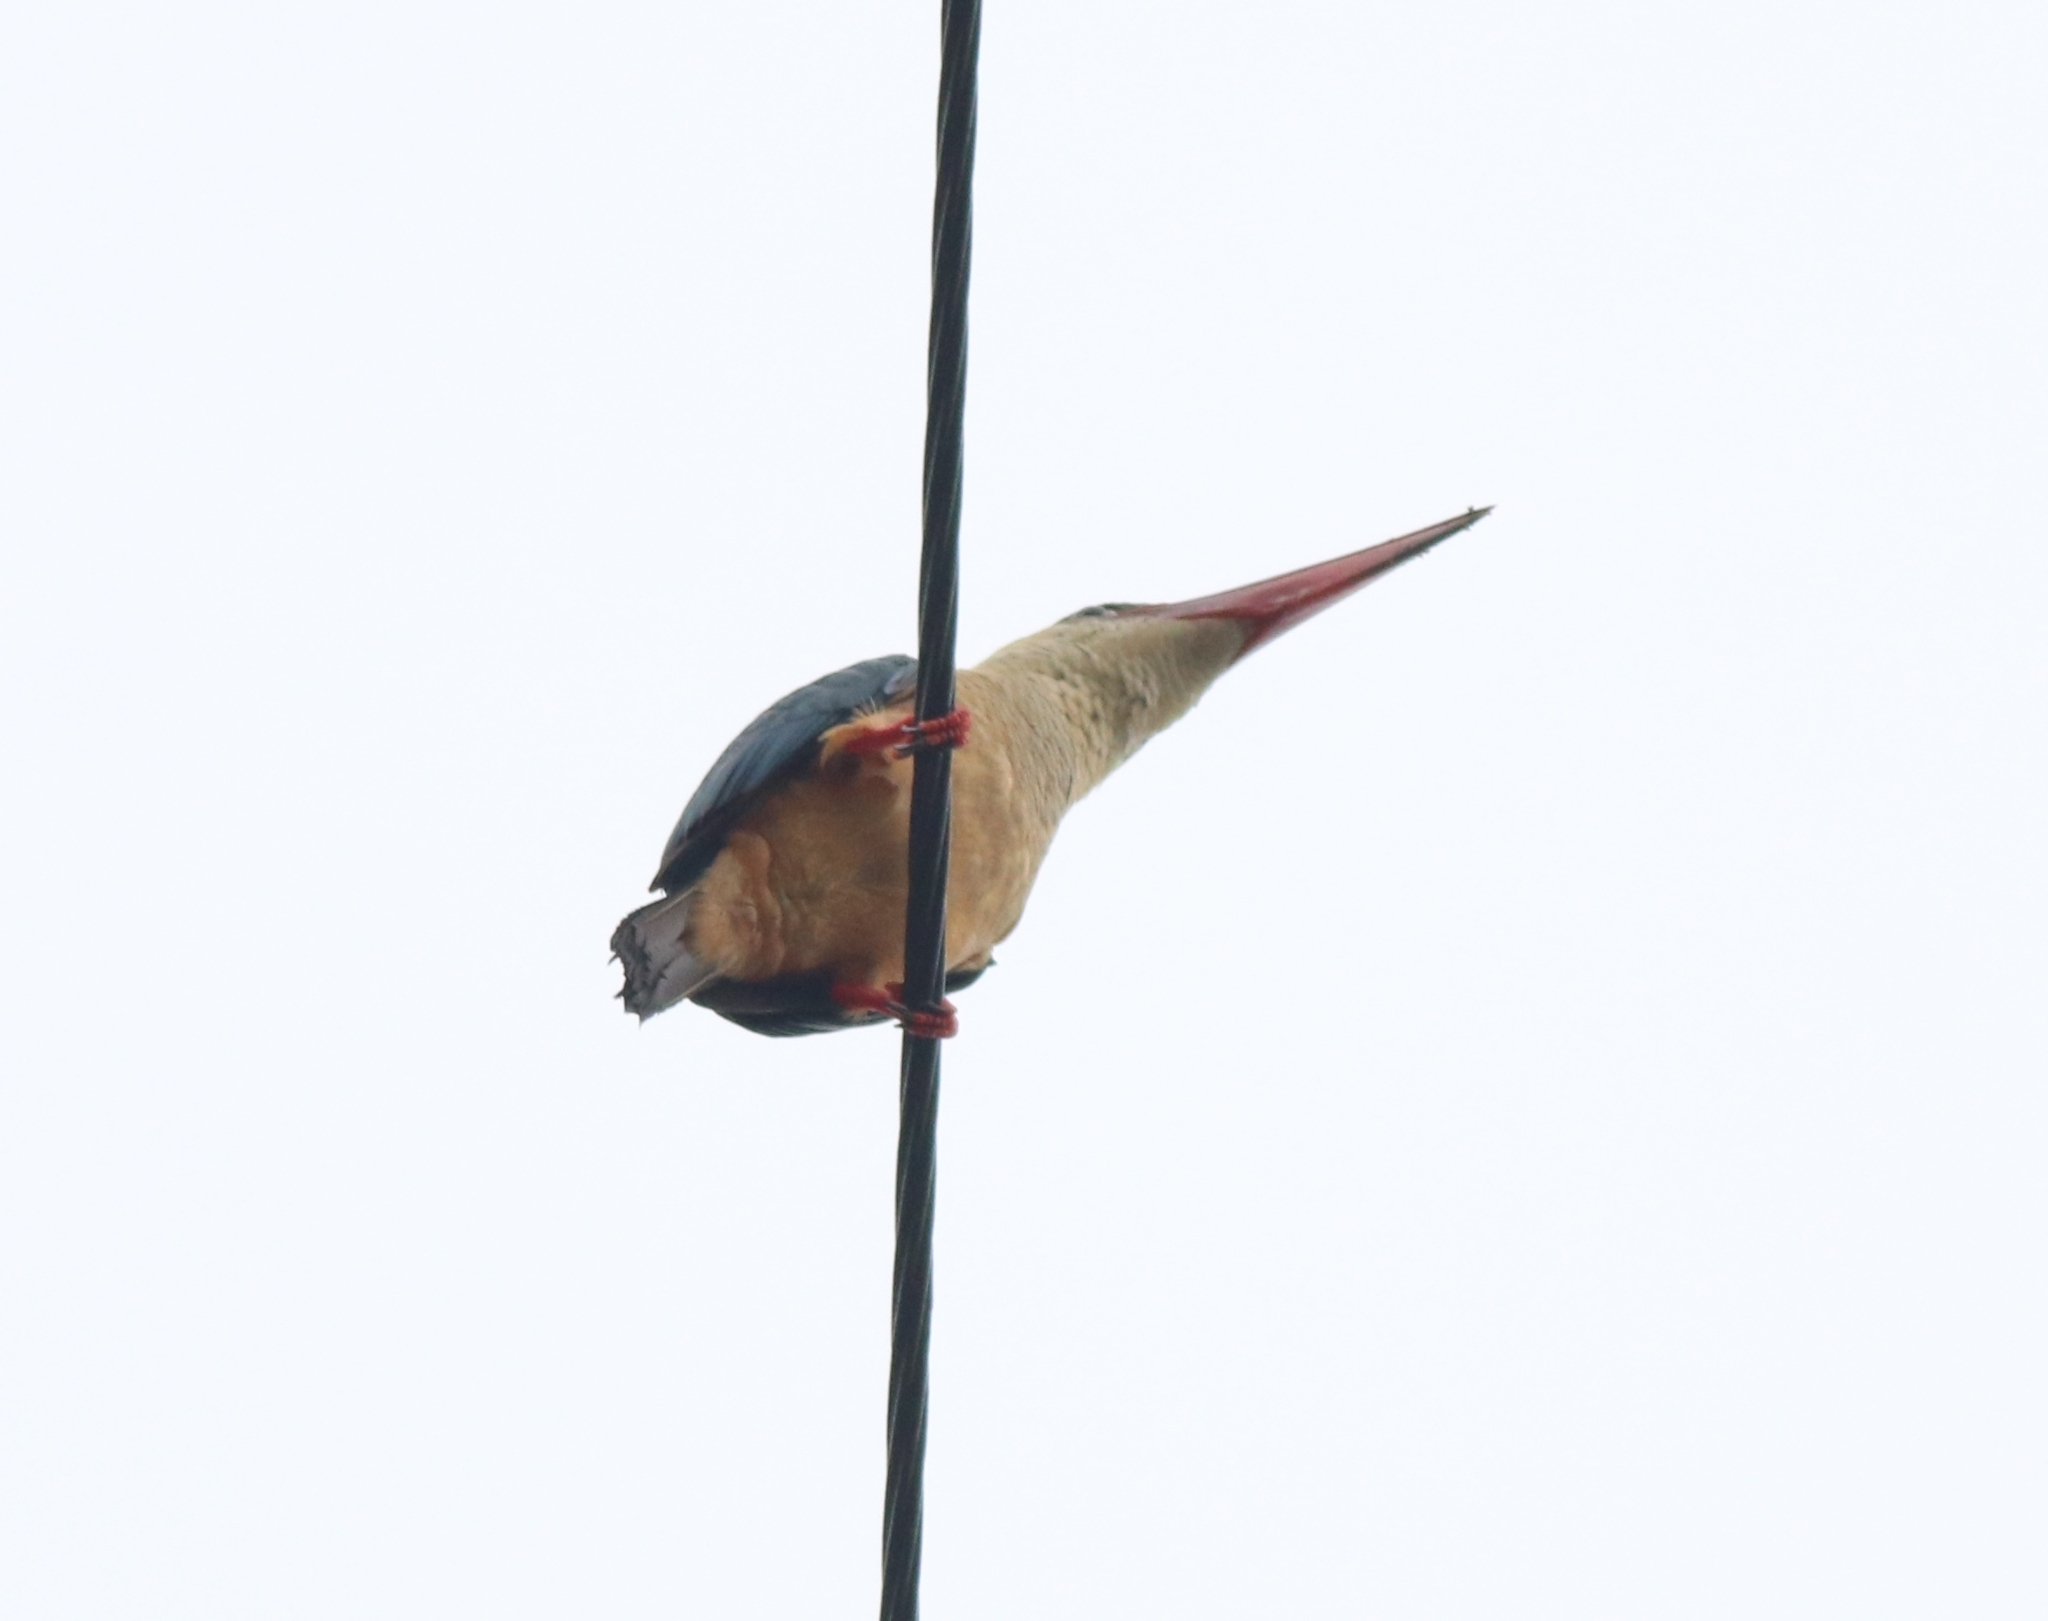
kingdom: Animalia
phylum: Chordata
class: Aves
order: Coraciiformes
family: Alcedinidae
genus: Pelargopsis
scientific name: Pelargopsis capensis
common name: Stork-billed kingfisher
